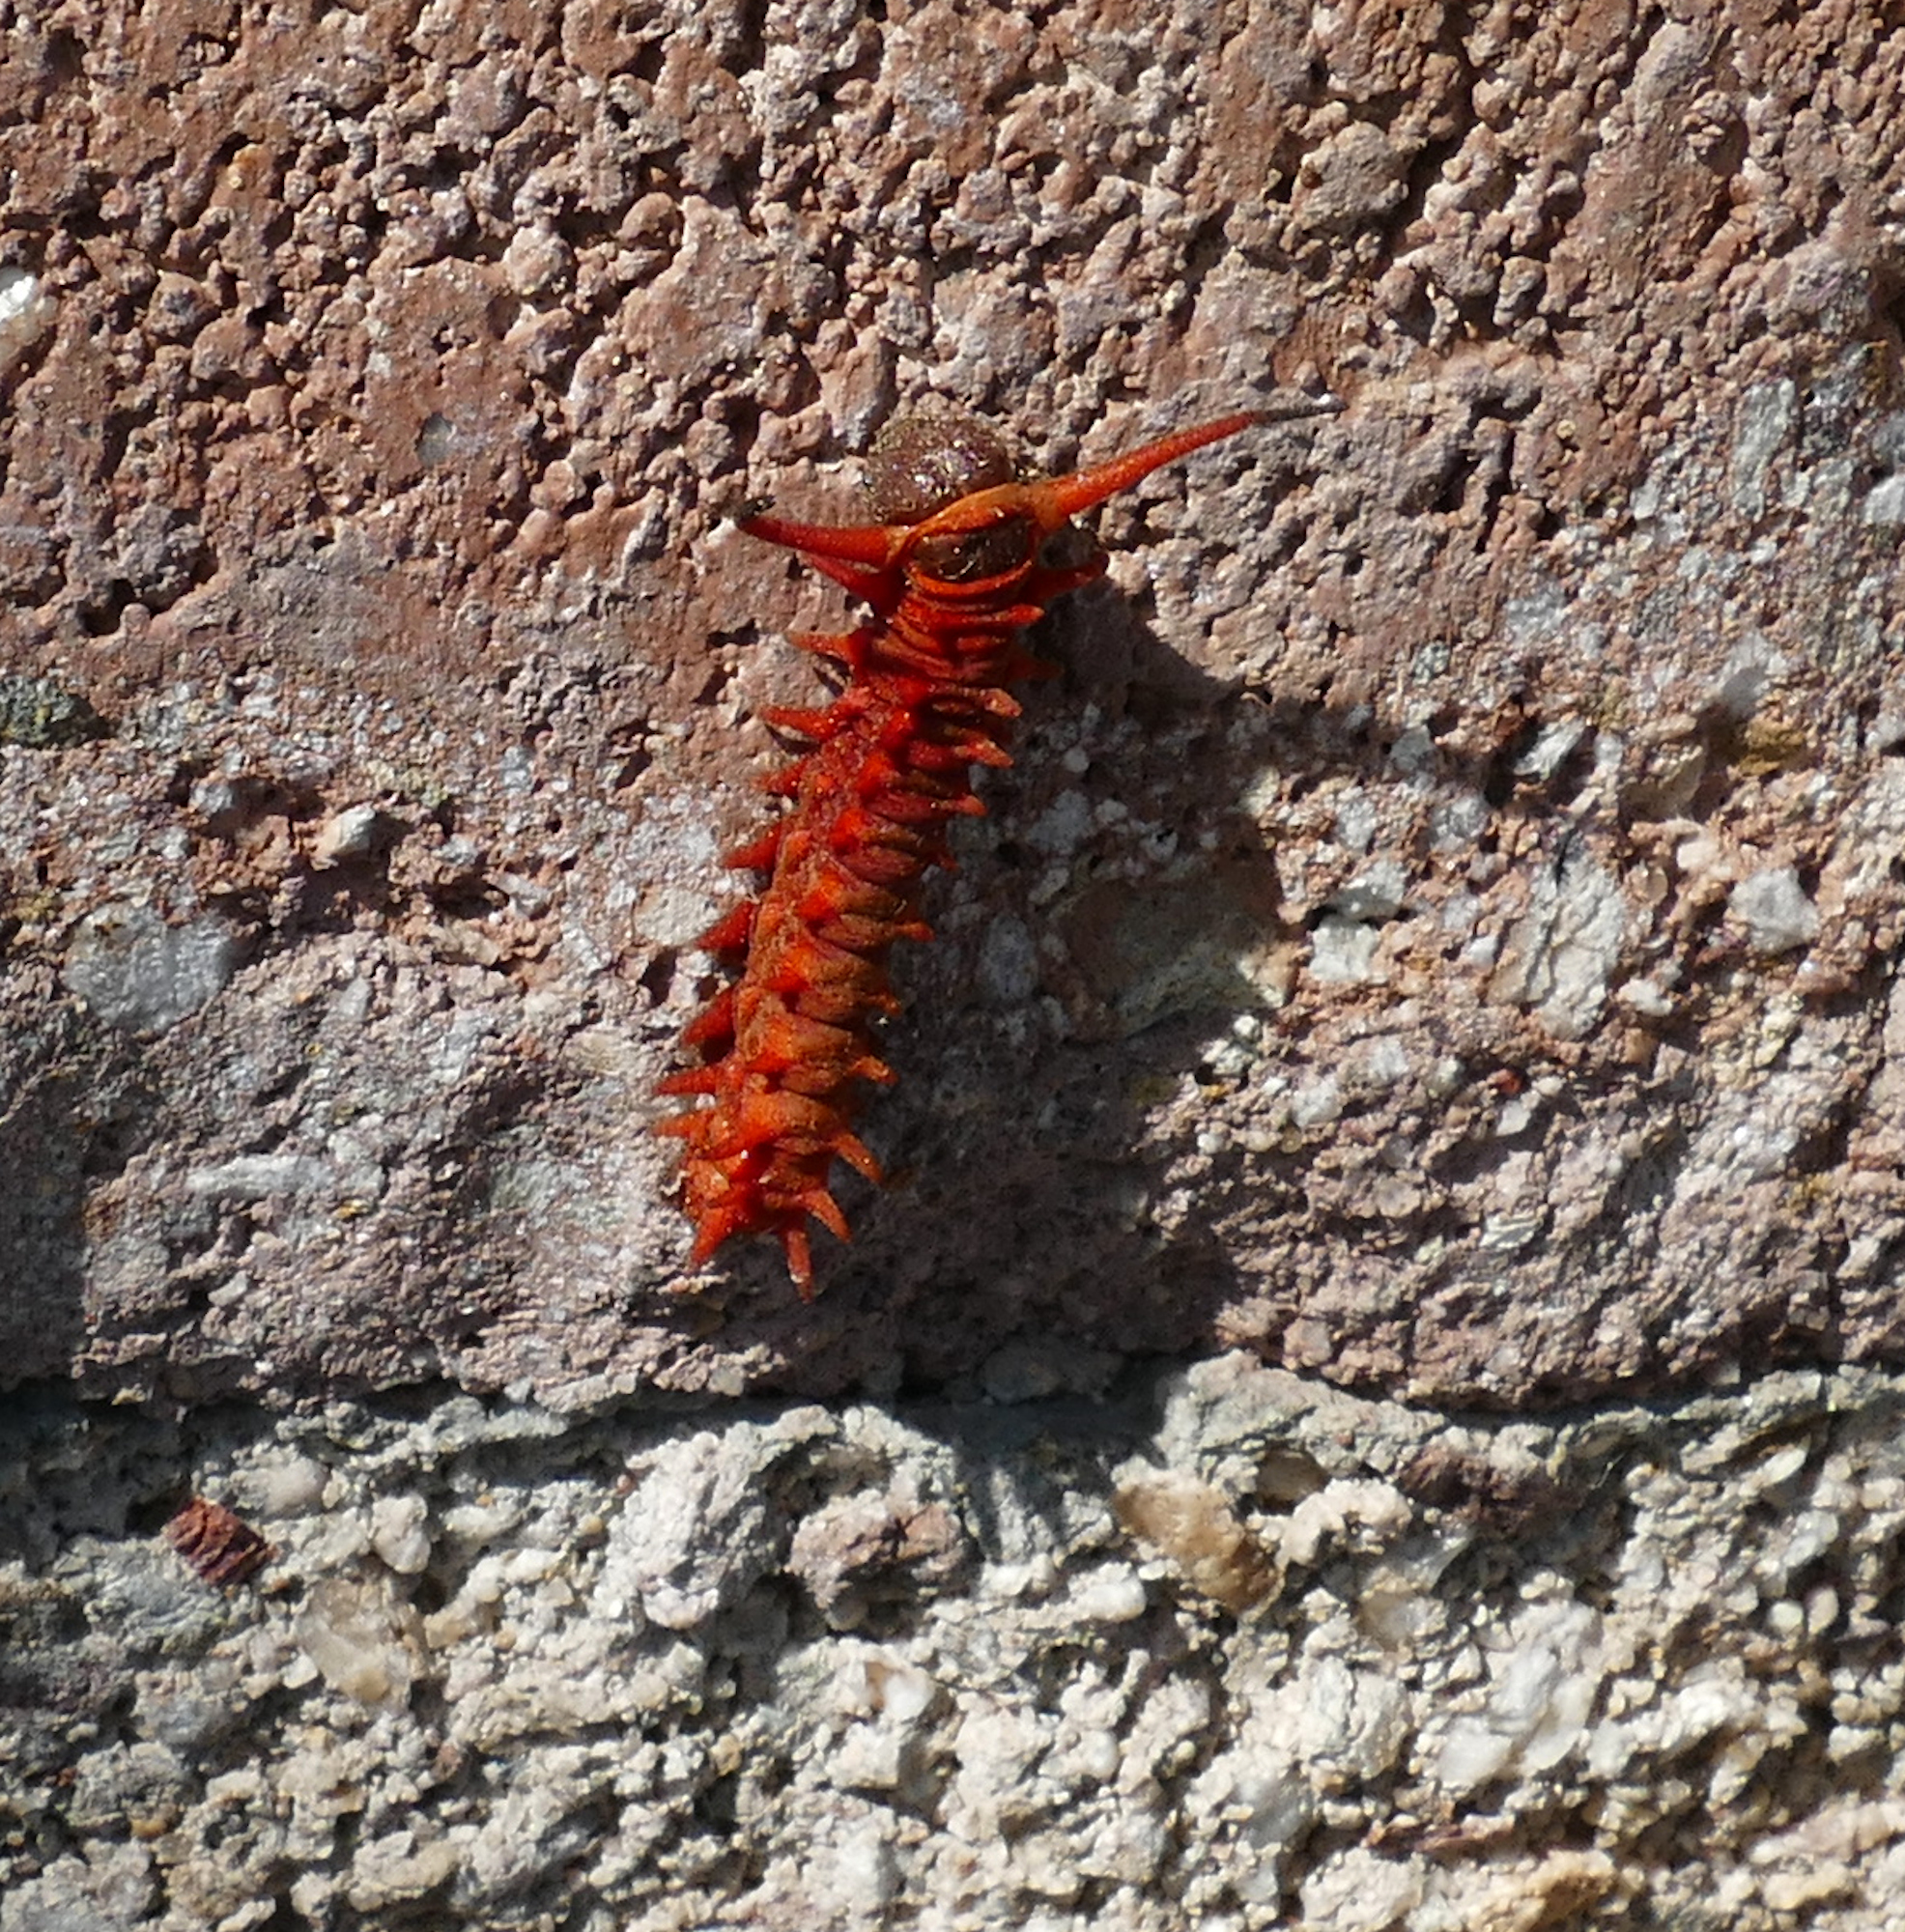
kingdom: Animalia
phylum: Arthropoda
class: Insecta
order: Lepidoptera
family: Papilionidae
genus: Battus
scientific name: Battus philenor
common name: Pipevine swallowtail
